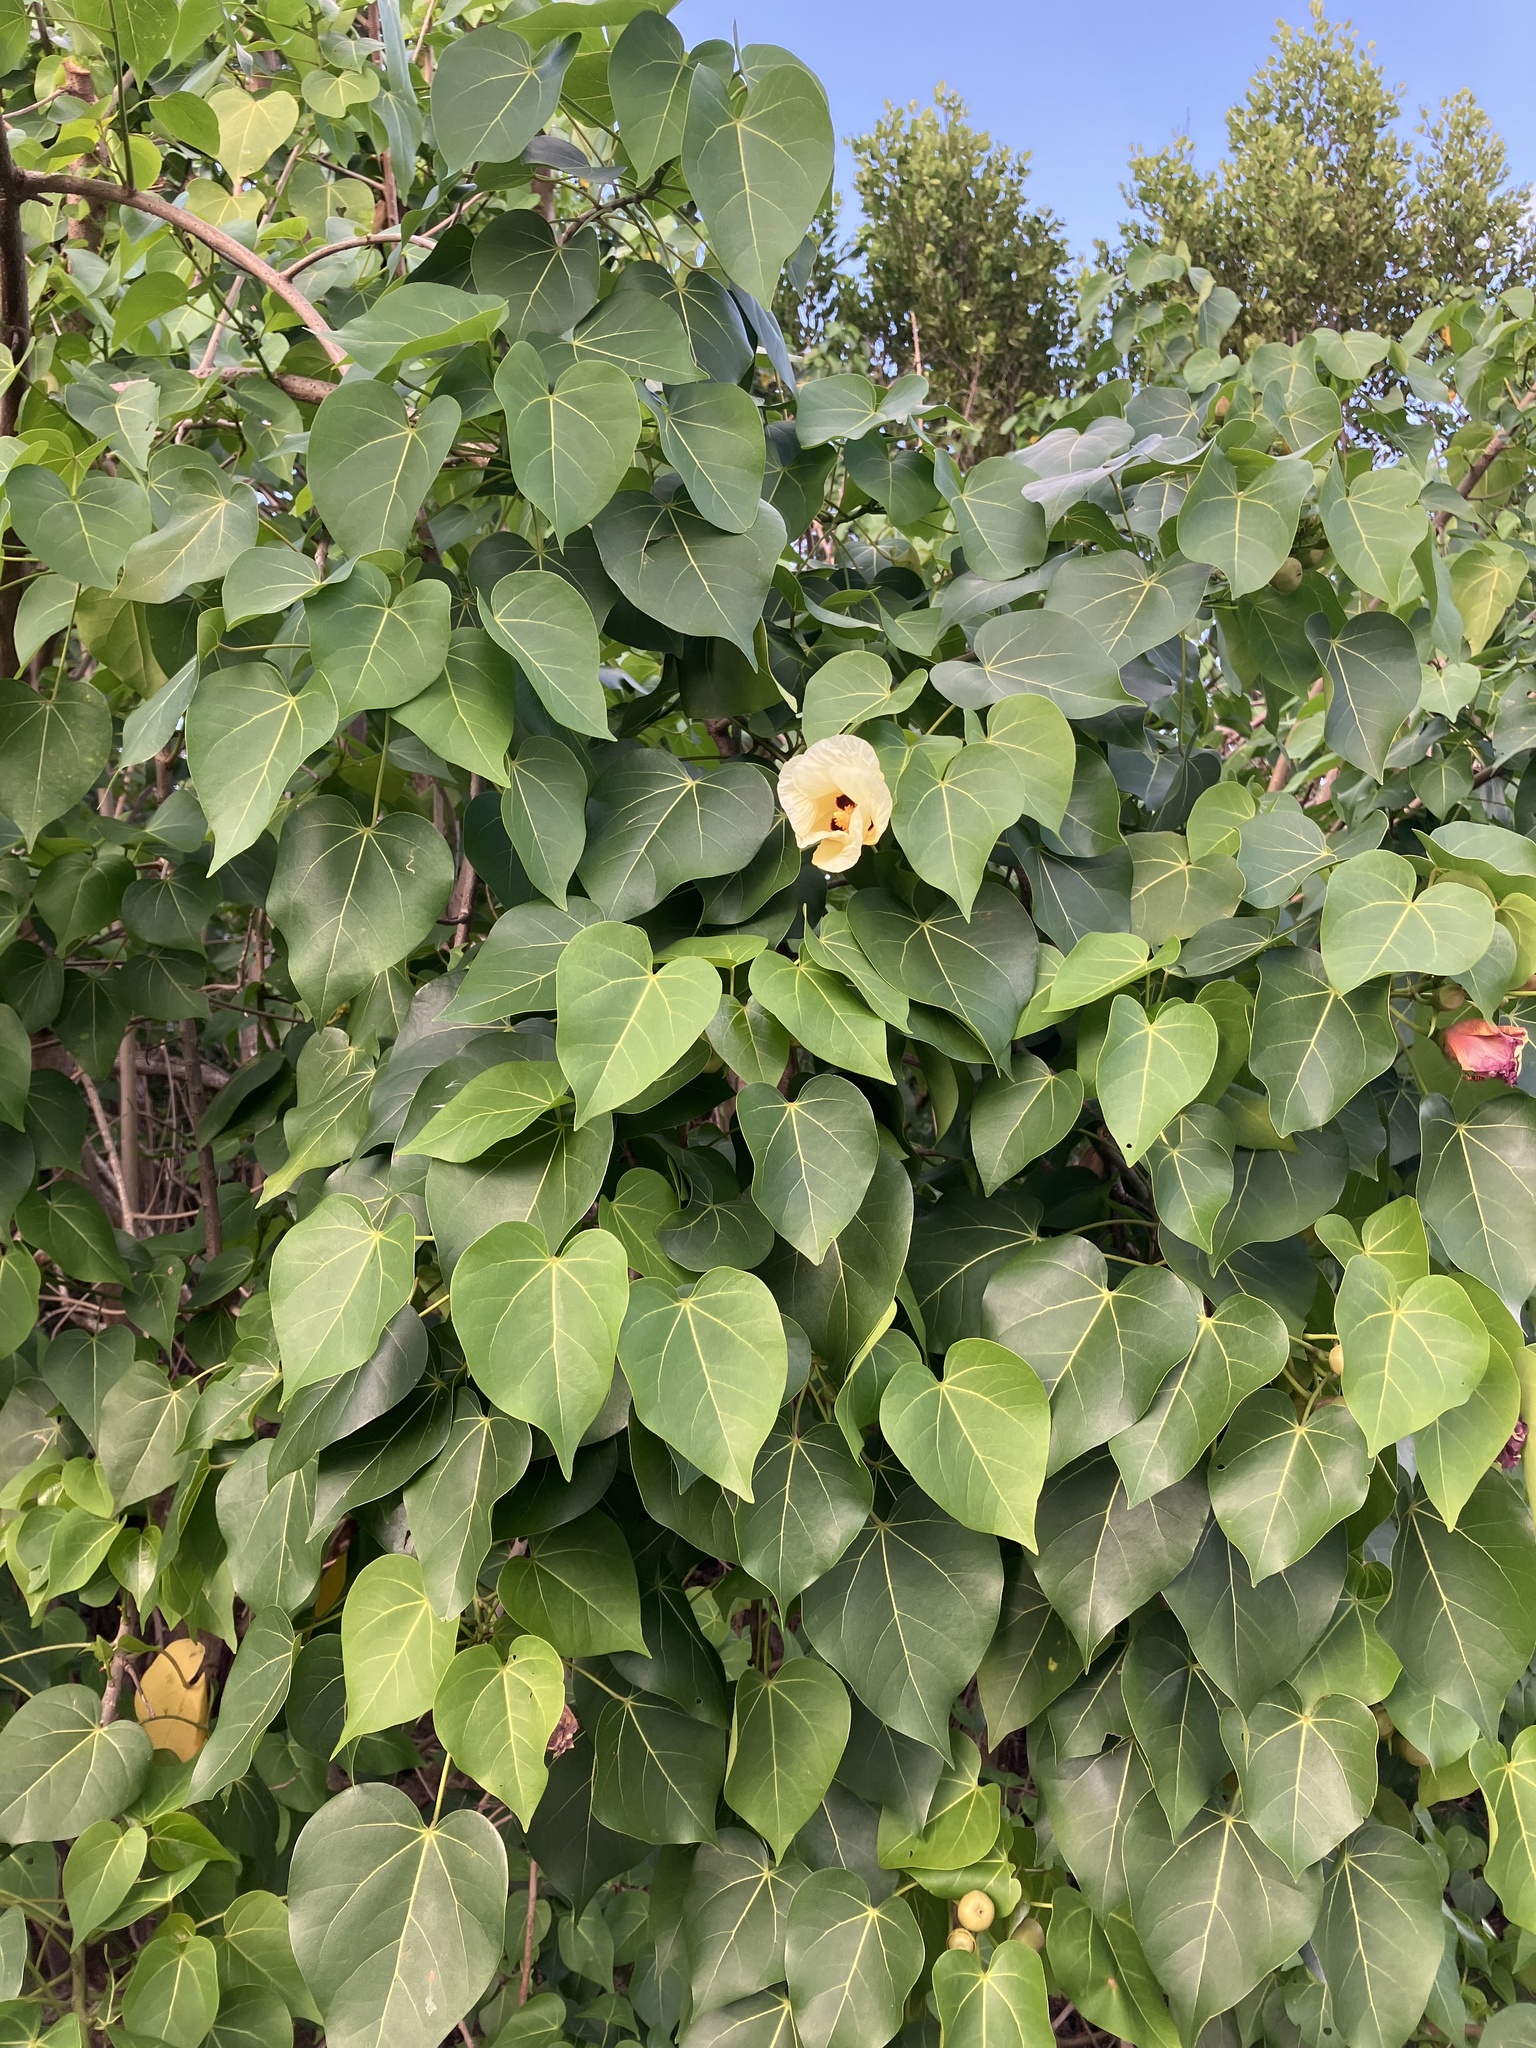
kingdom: Plantae
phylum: Tracheophyta
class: Magnoliopsida
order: Malvales
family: Malvaceae
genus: Thespesia
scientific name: Thespesia populnea
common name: Seaside mahoe
